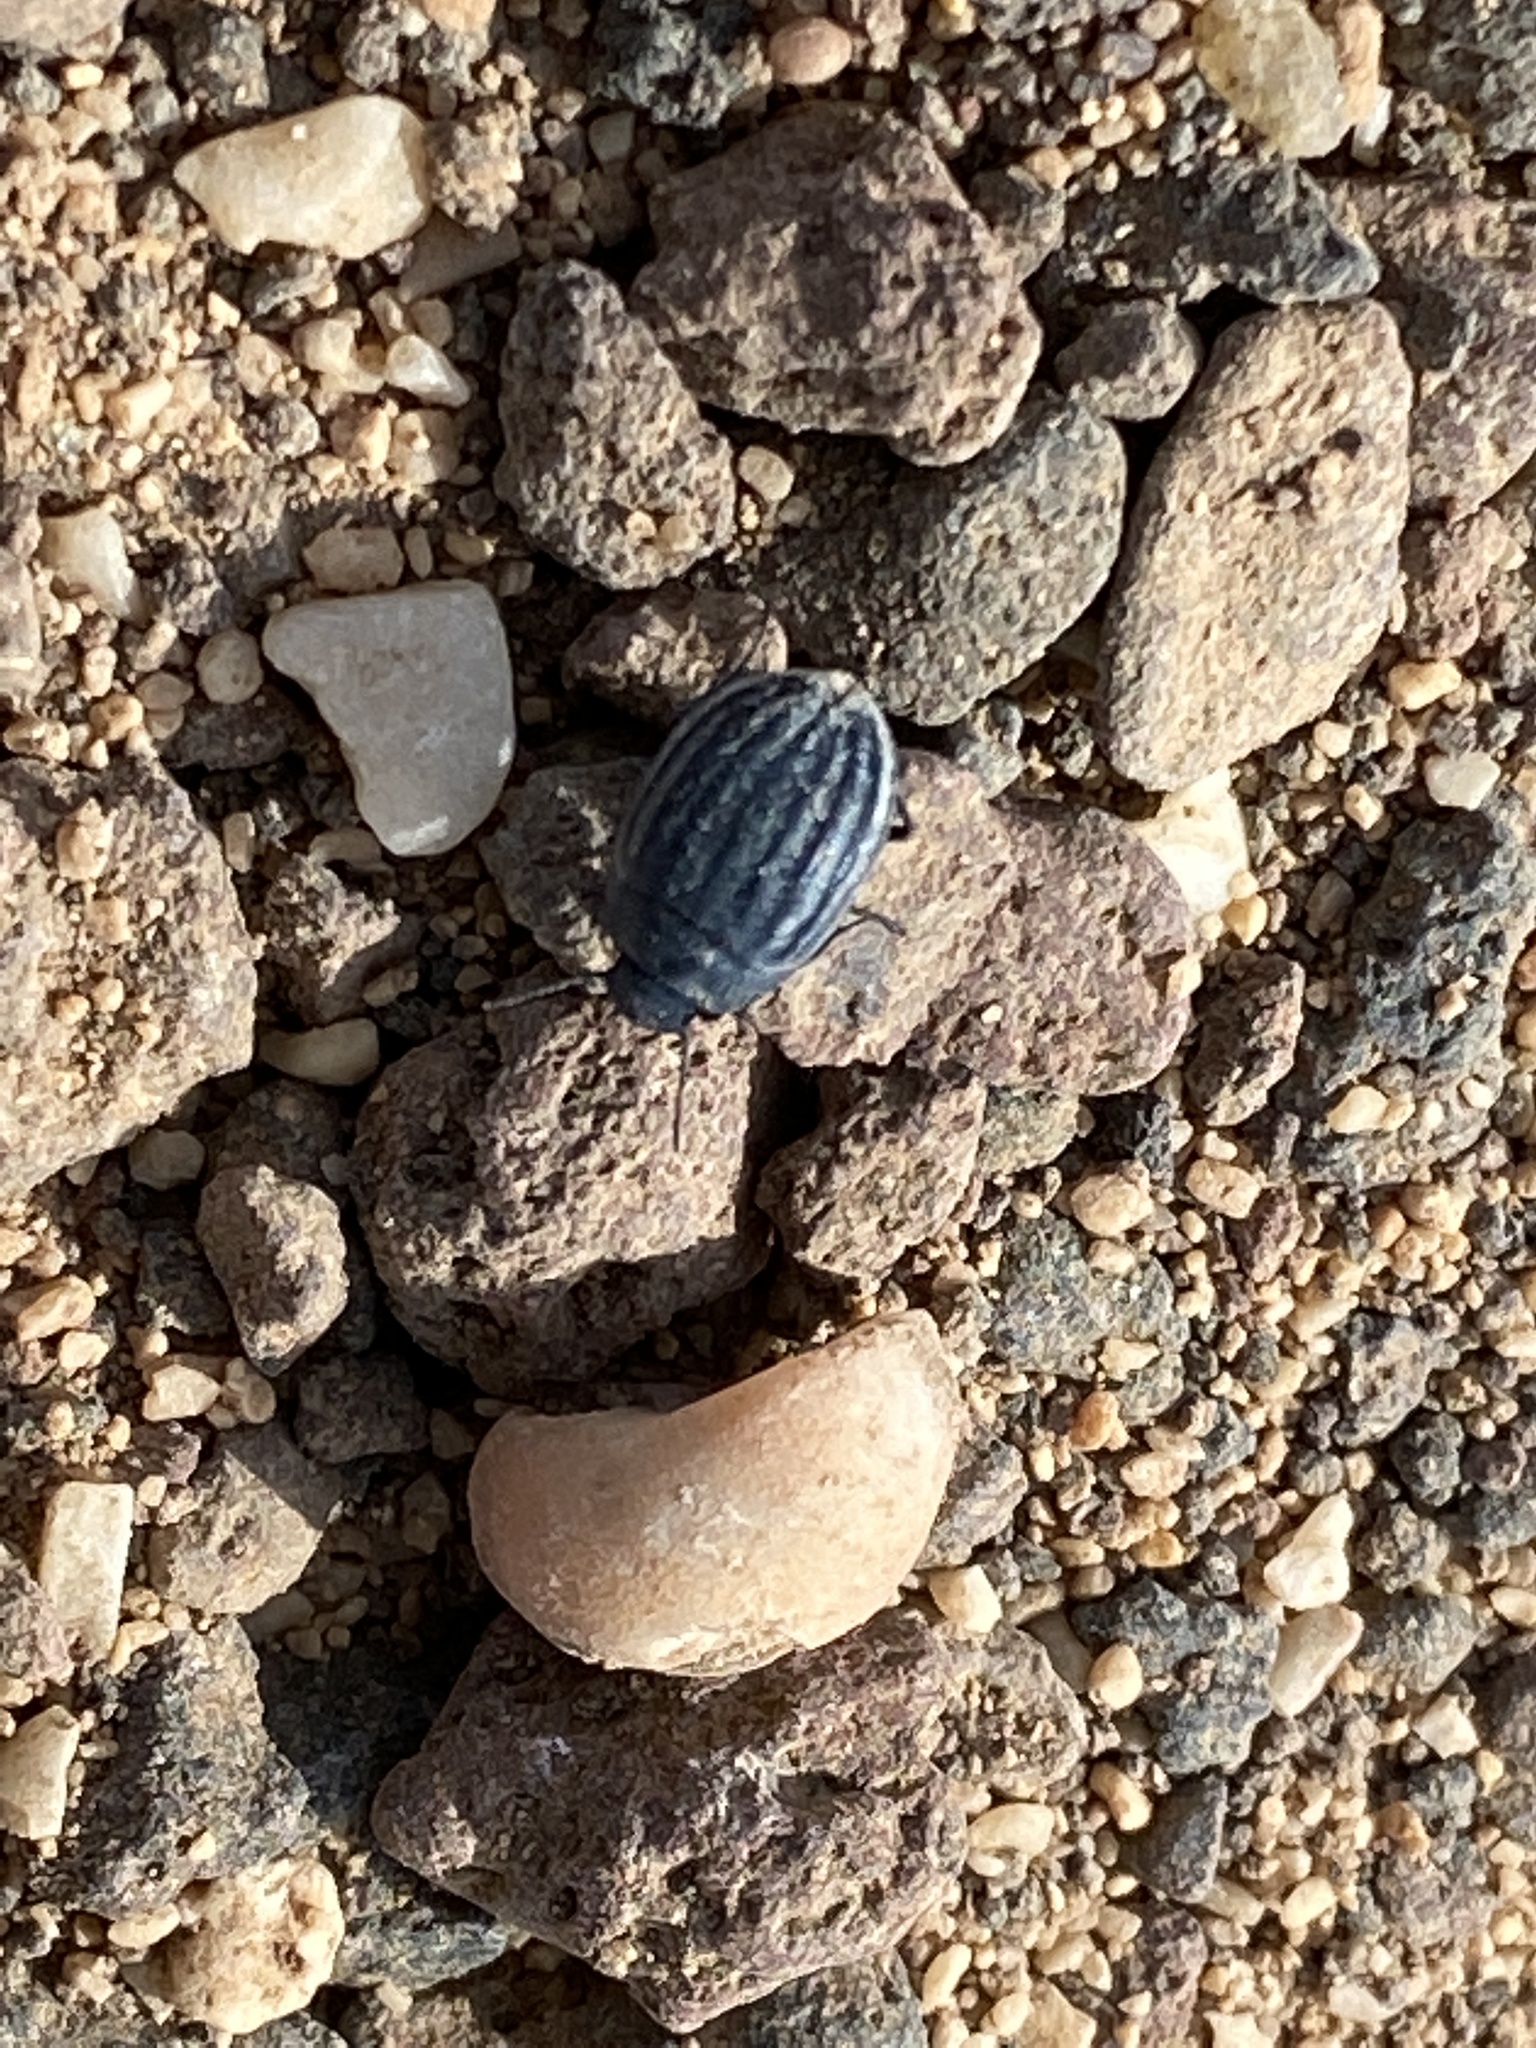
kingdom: Animalia
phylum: Arthropoda
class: Insecta
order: Coleoptera
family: Tenebrionidae
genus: Zophosis
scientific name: Zophosis bicarinata
